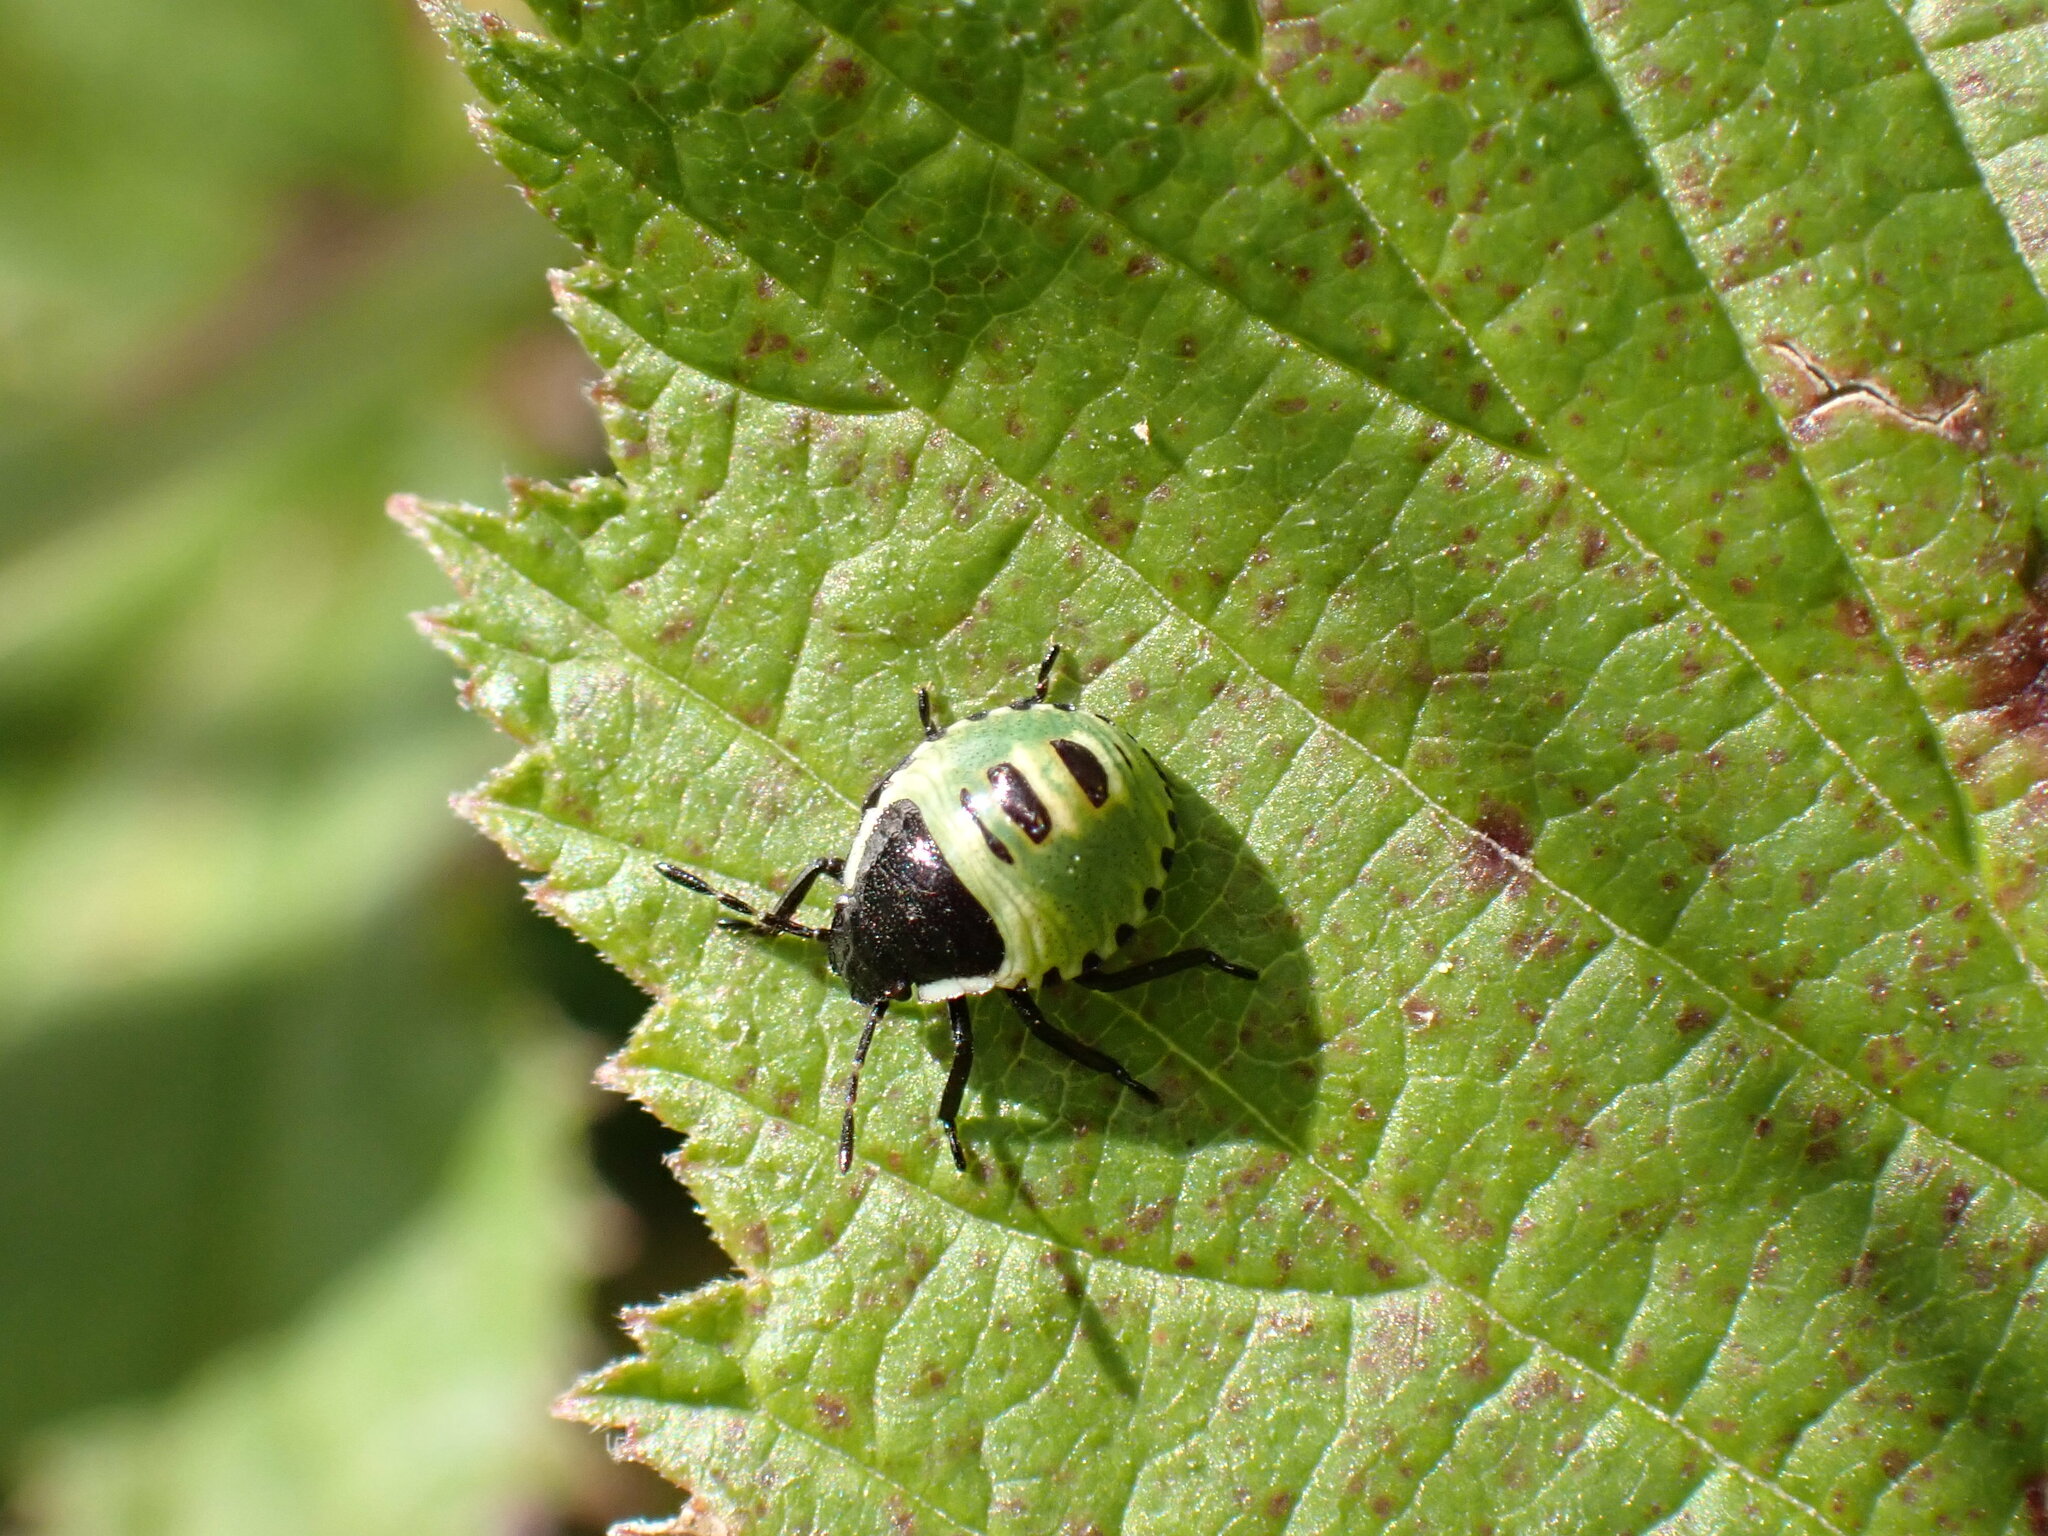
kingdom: Animalia
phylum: Arthropoda
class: Insecta
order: Hemiptera
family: Pentatomidae
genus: Palomena
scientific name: Palomena prasina
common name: Green shieldbug
